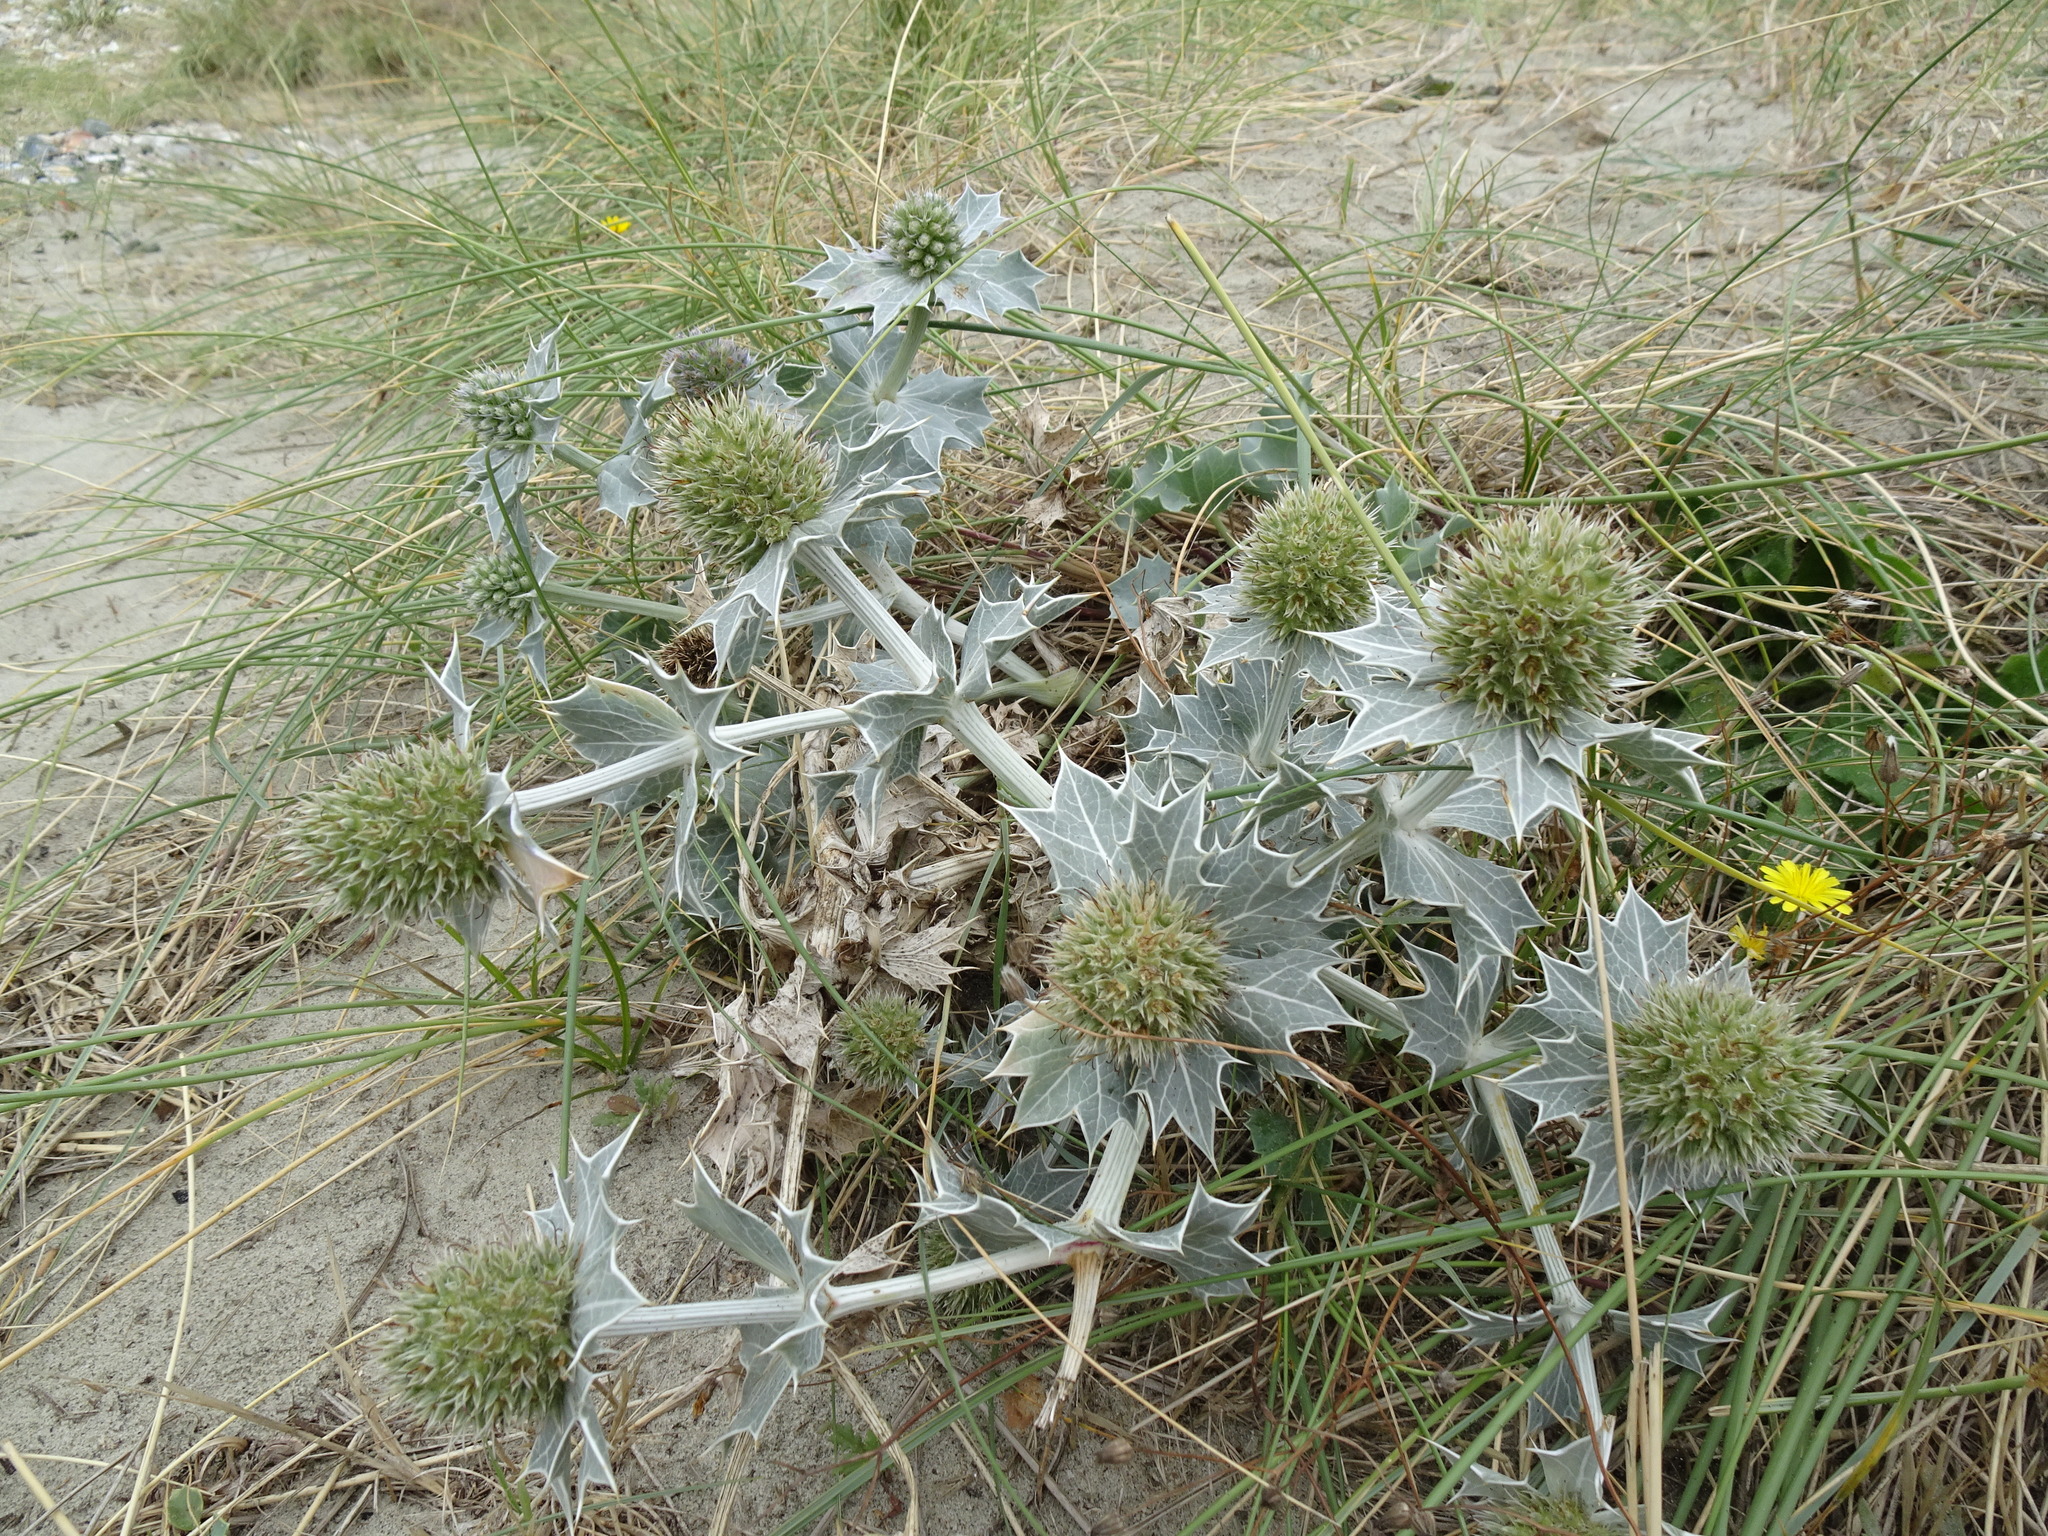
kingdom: Plantae
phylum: Tracheophyta
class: Magnoliopsida
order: Apiales
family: Apiaceae
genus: Eryngium
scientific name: Eryngium maritimum
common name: Sea-holly
